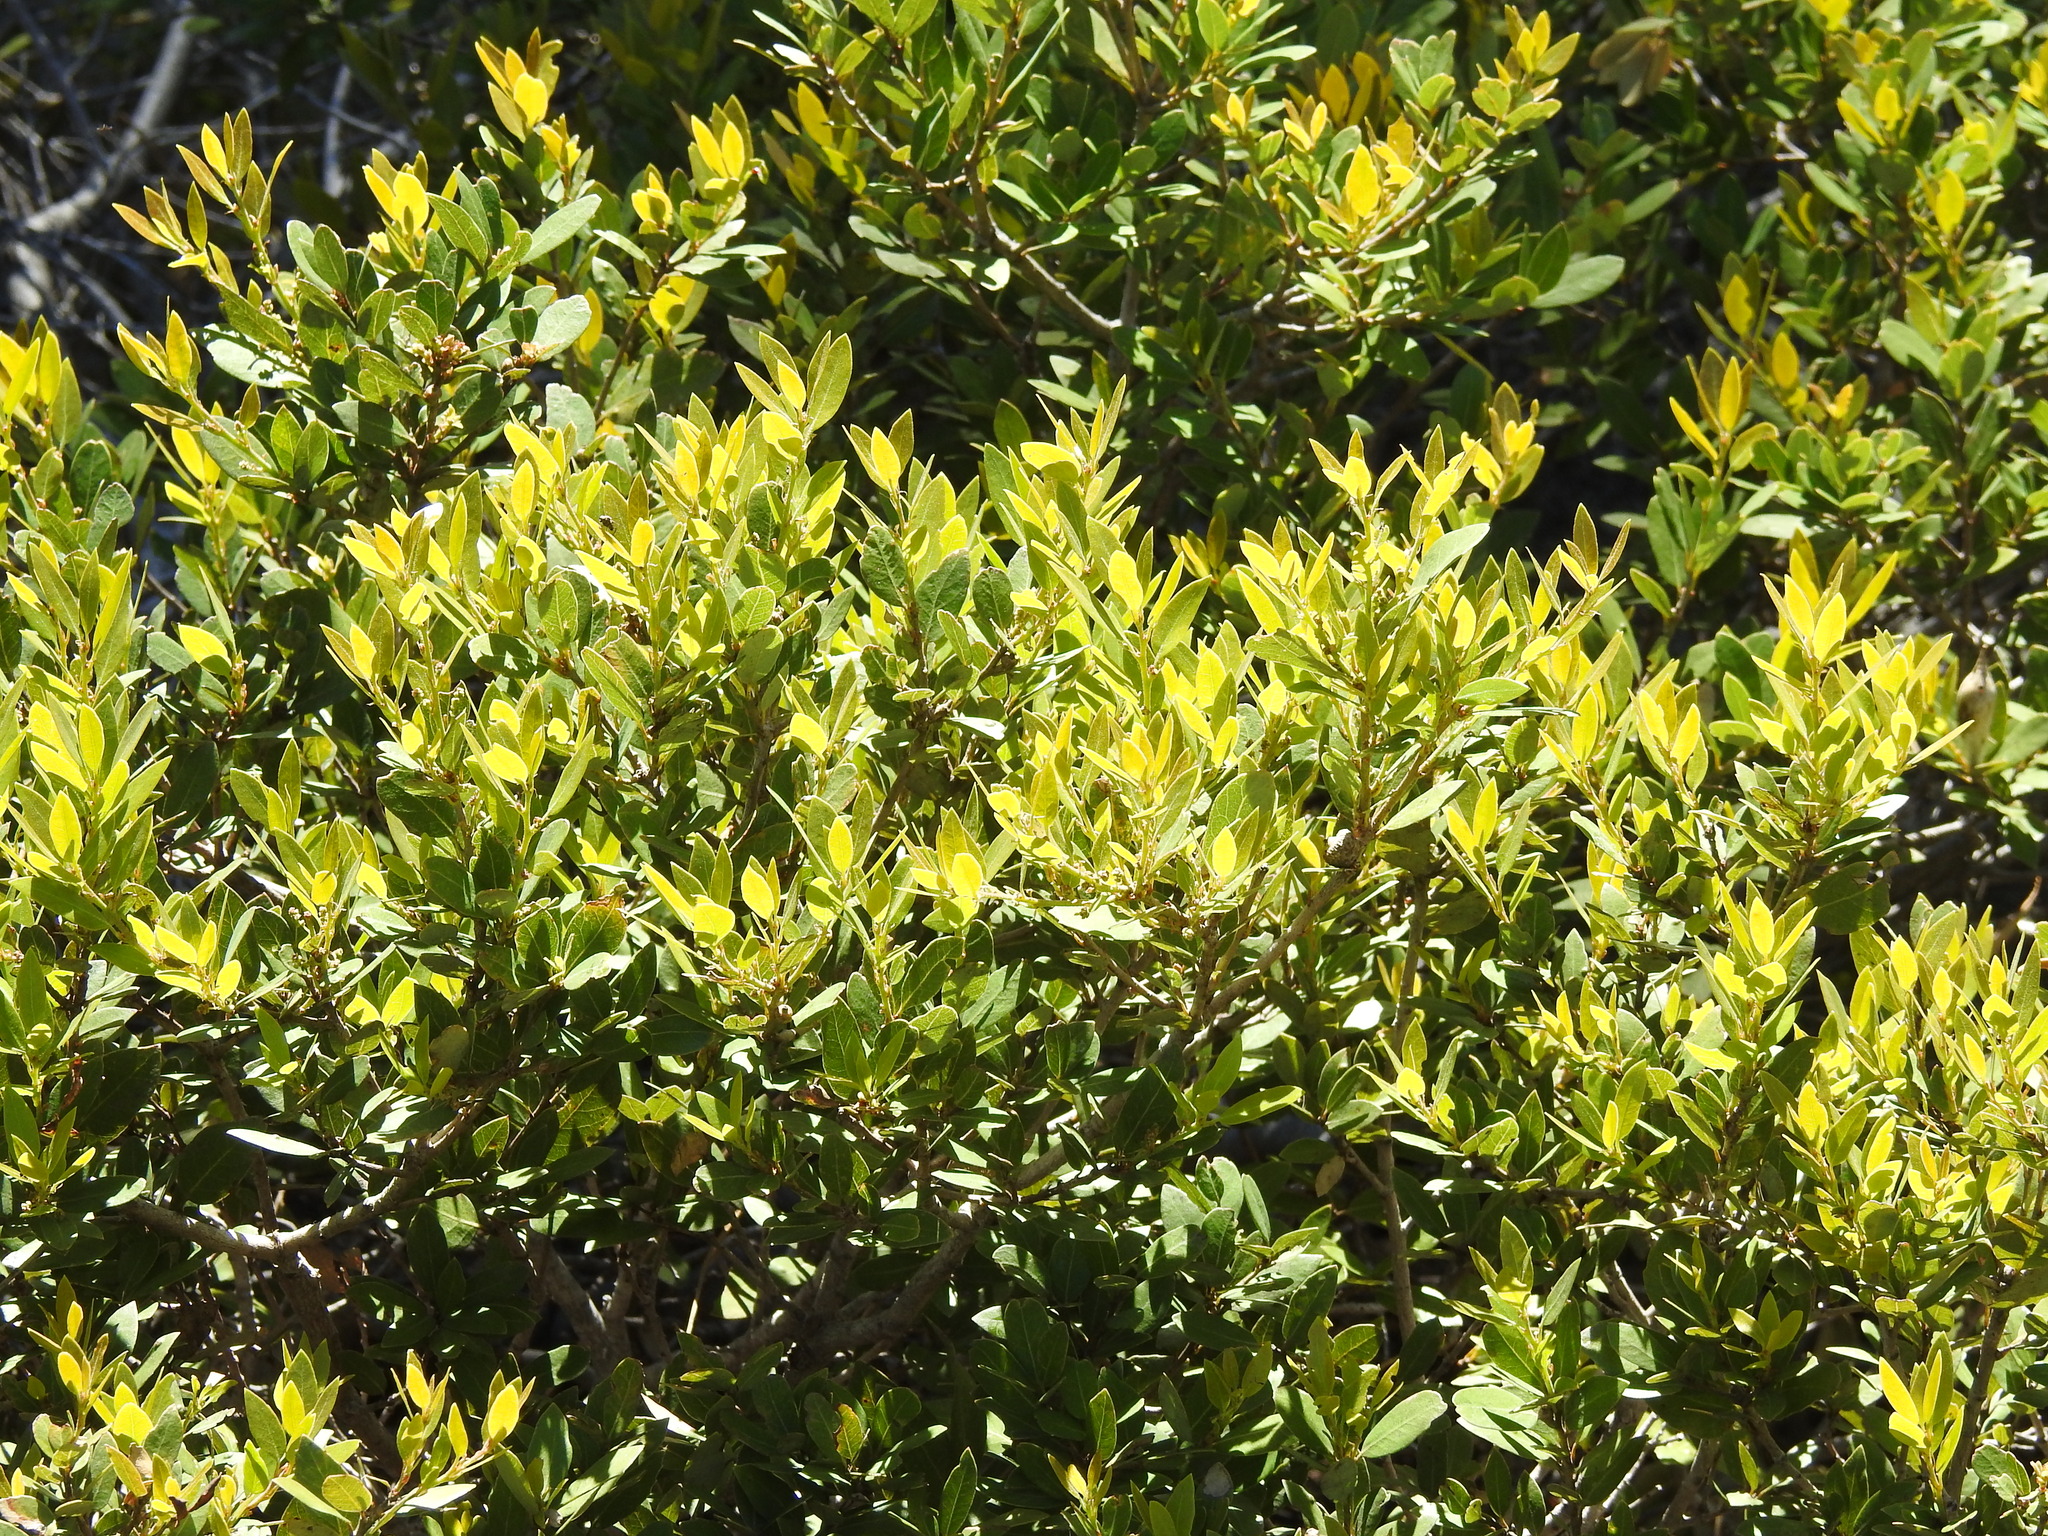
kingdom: Plantae
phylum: Tracheophyta
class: Magnoliopsida
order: Fagales
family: Fagaceae
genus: Quercus
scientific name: Quercus vacciniifolia
